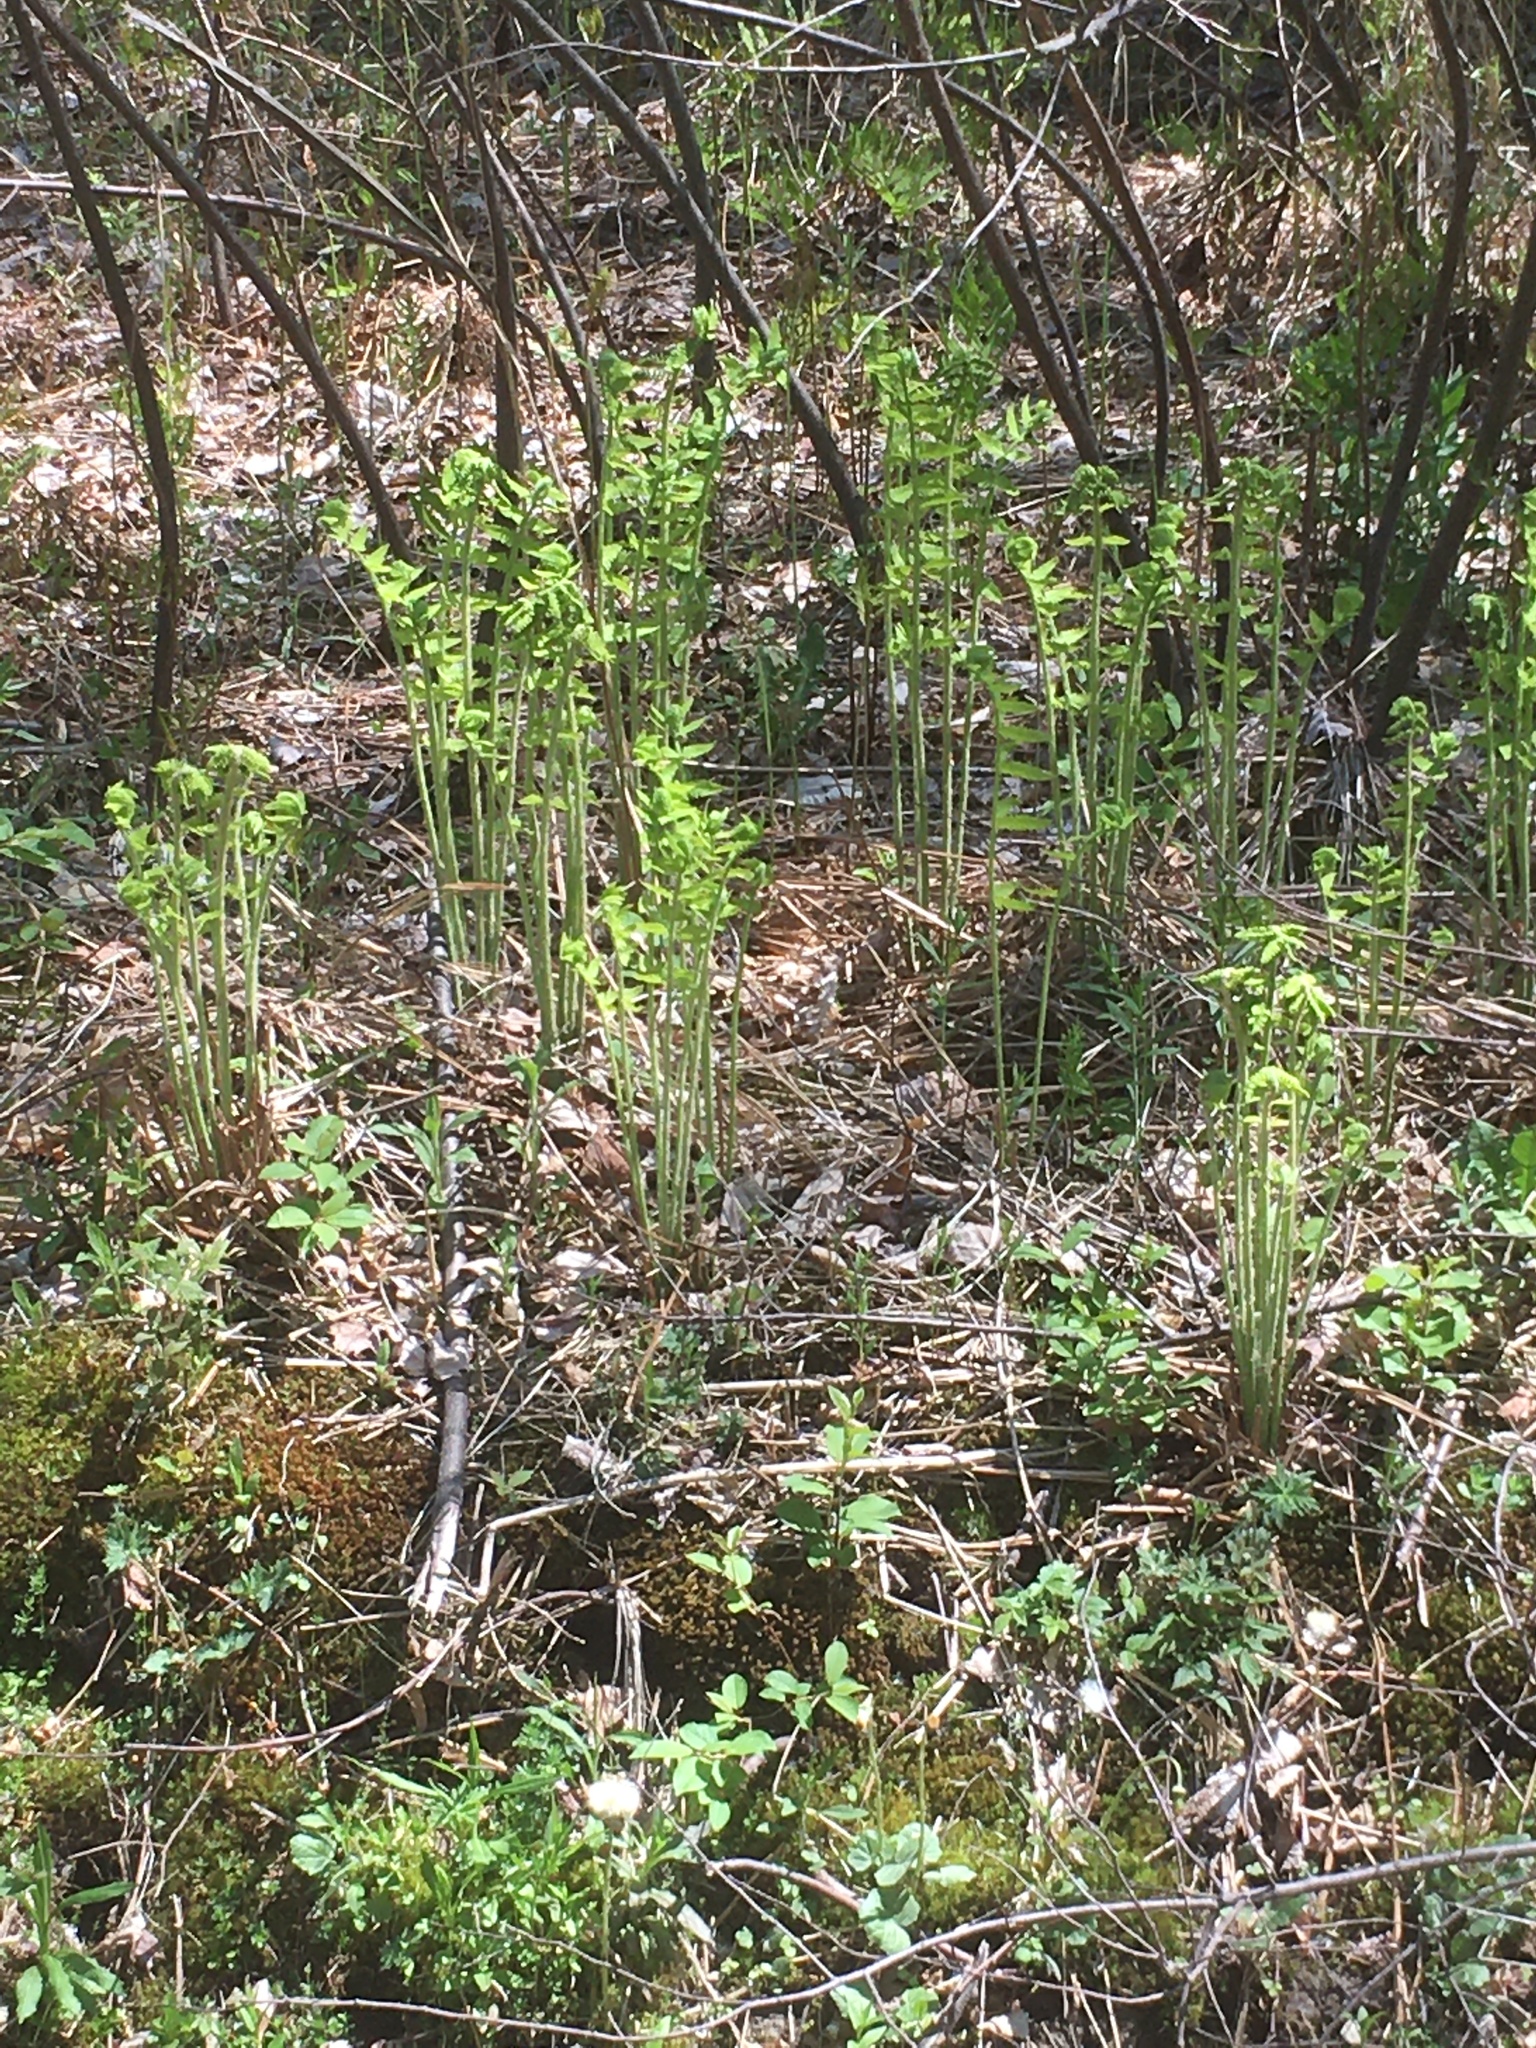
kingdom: Plantae
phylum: Tracheophyta
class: Polypodiopsida
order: Osmundales
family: Osmundaceae
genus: Claytosmunda
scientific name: Claytosmunda claytoniana
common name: Clayton's fern
